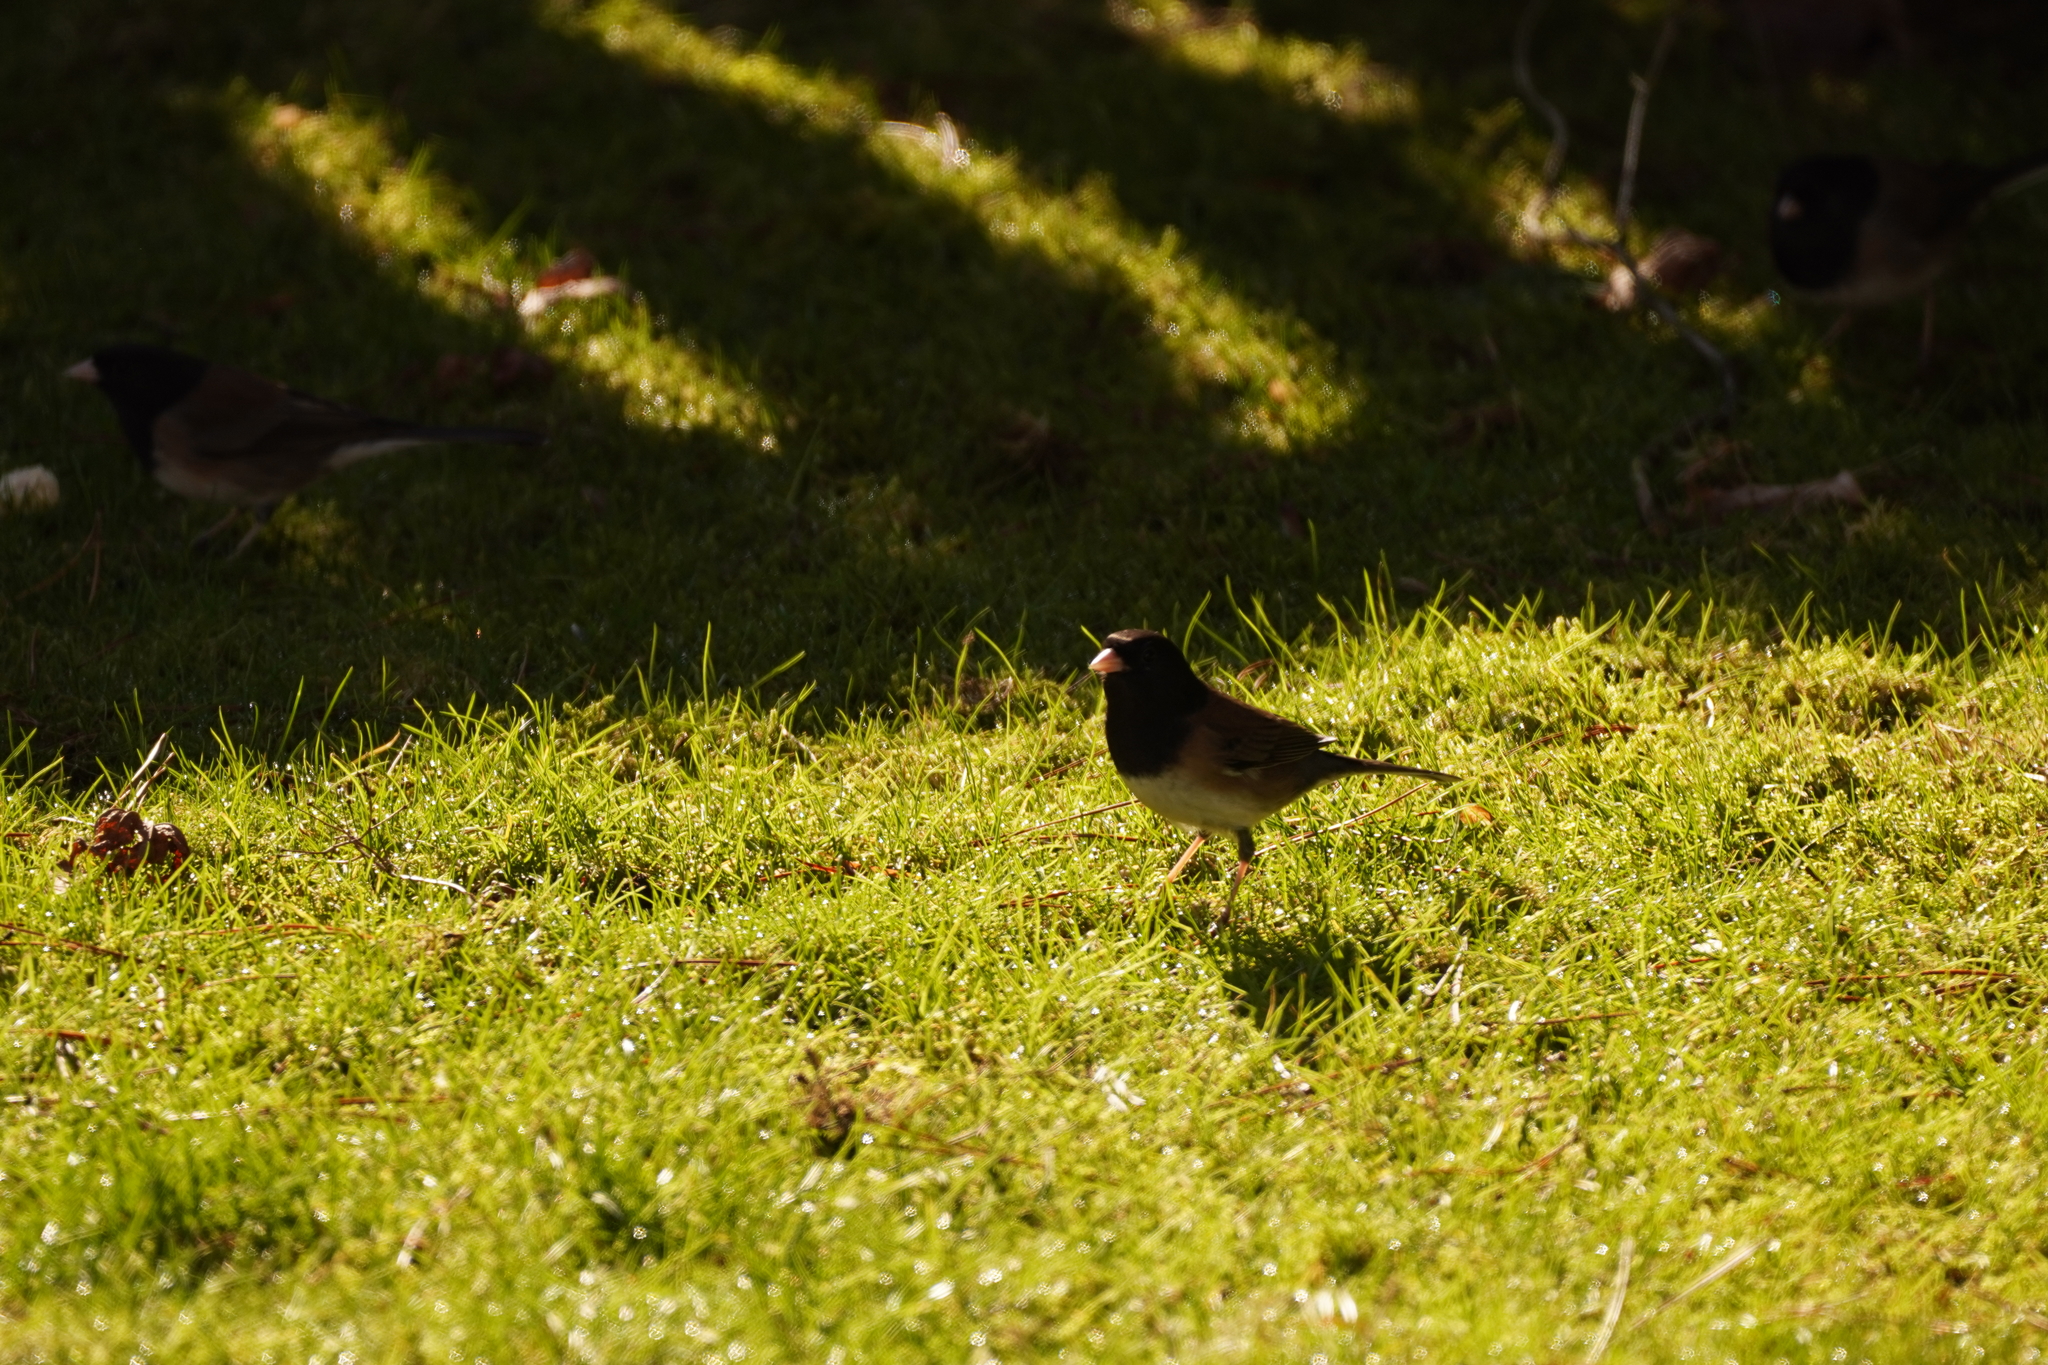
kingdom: Animalia
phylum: Chordata
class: Aves
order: Passeriformes
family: Passerellidae
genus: Junco
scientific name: Junco hyemalis
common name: Dark-eyed junco
